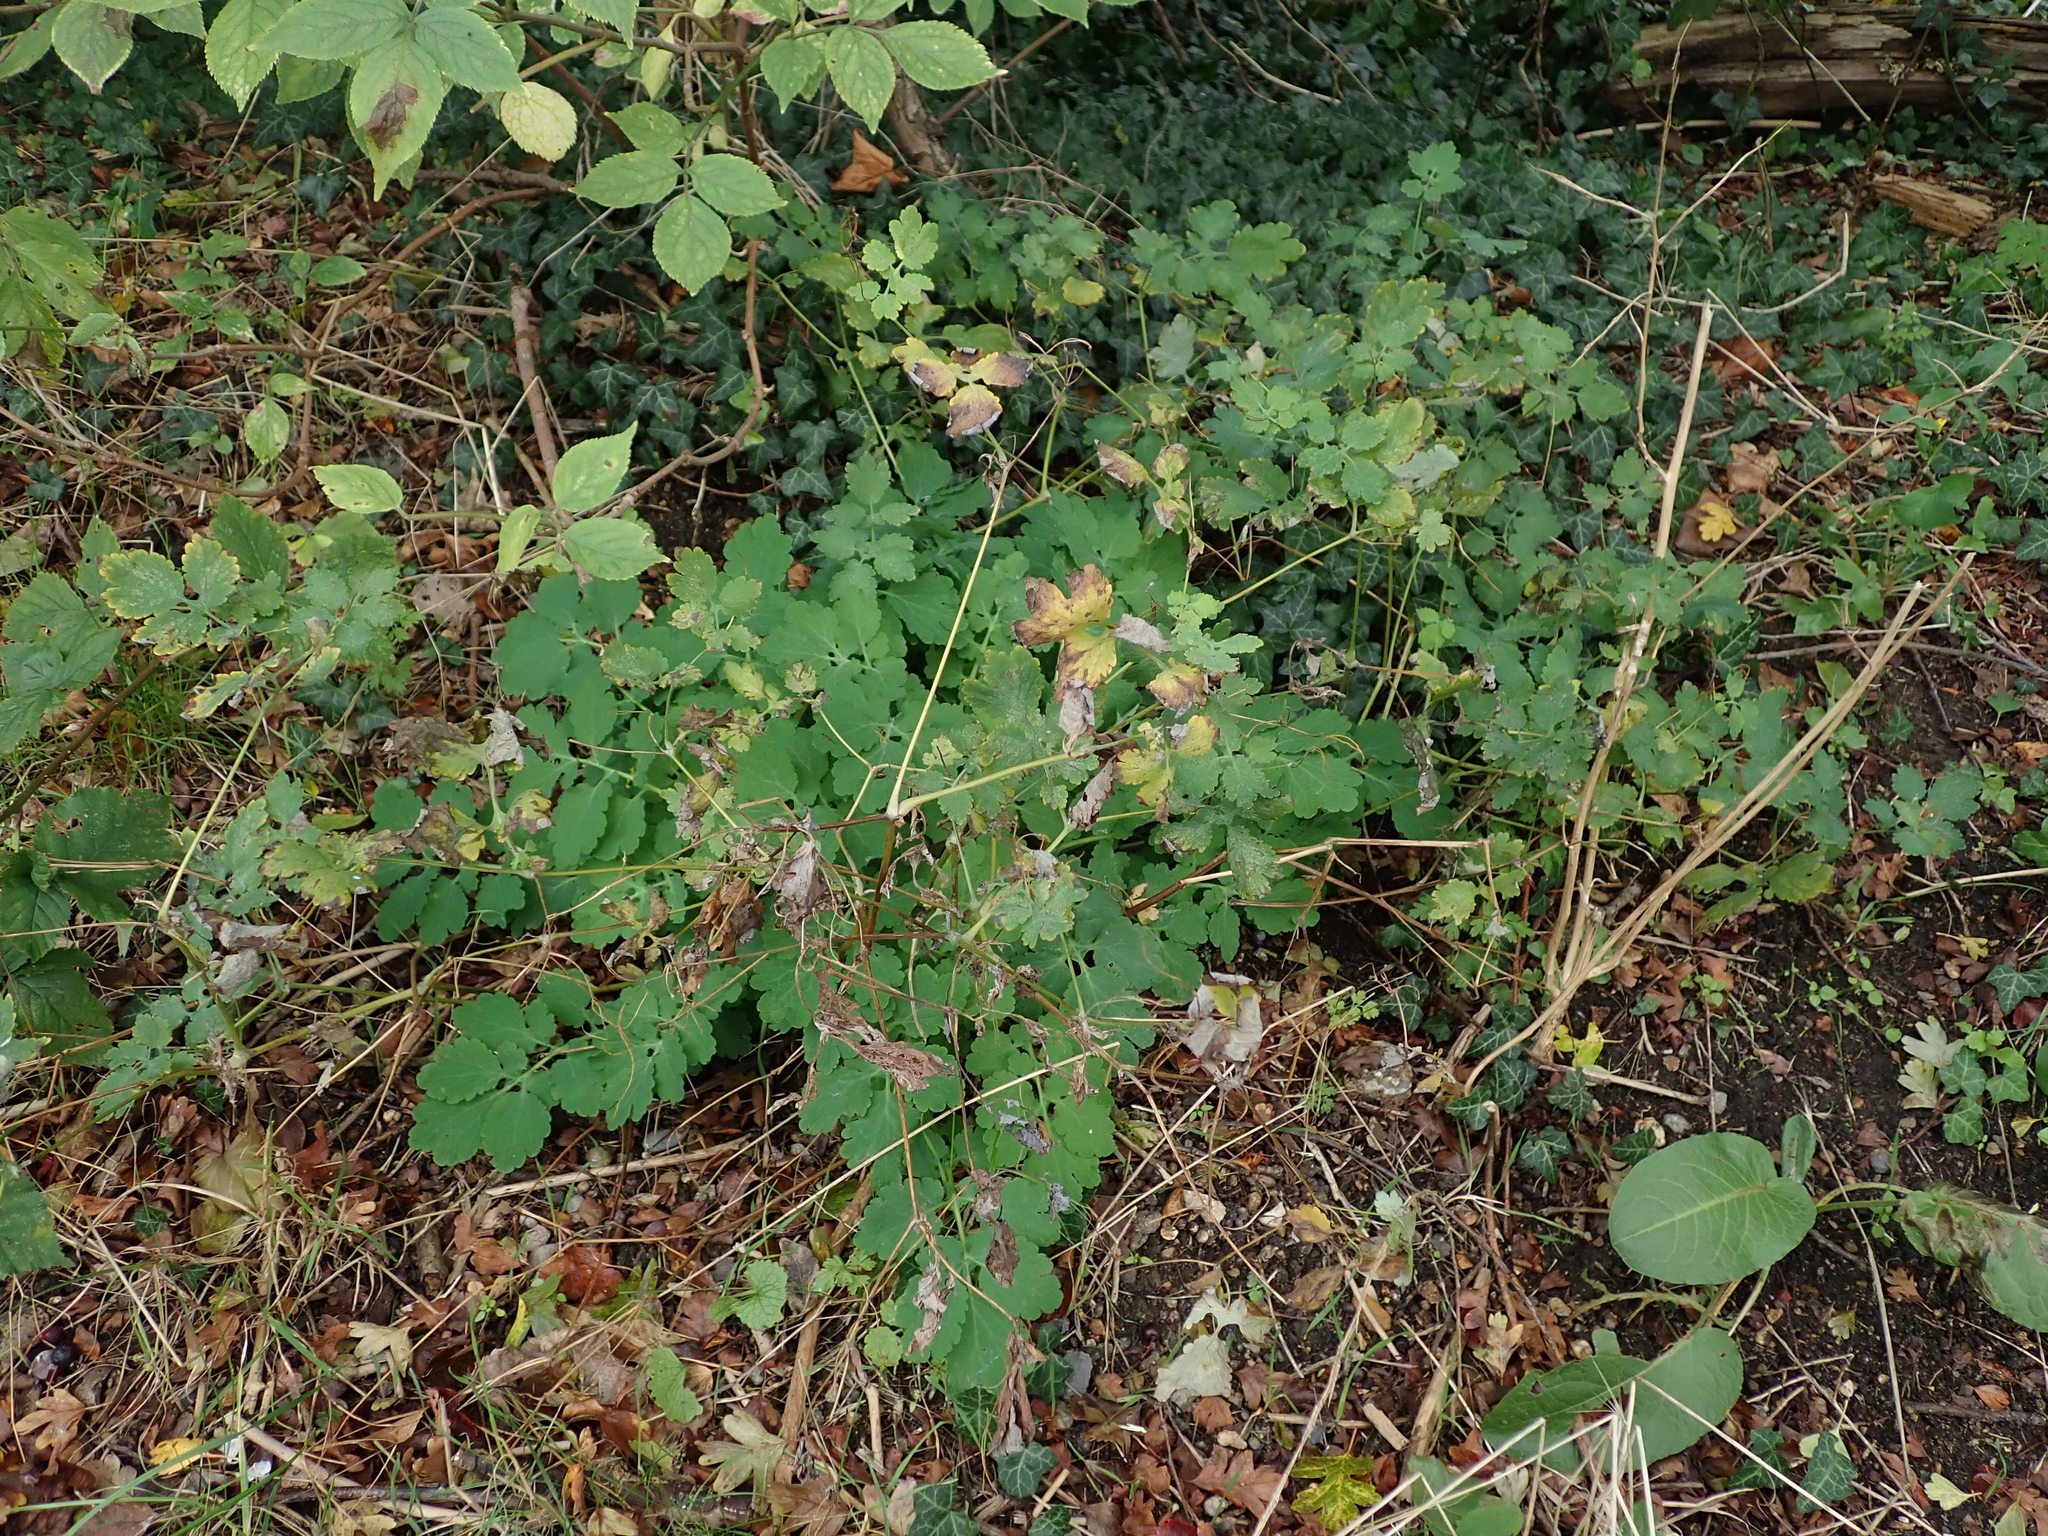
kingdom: Plantae
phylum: Tracheophyta
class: Magnoliopsida
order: Ranunculales
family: Papaveraceae
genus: Chelidonium
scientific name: Chelidonium majus
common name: Greater celandine
